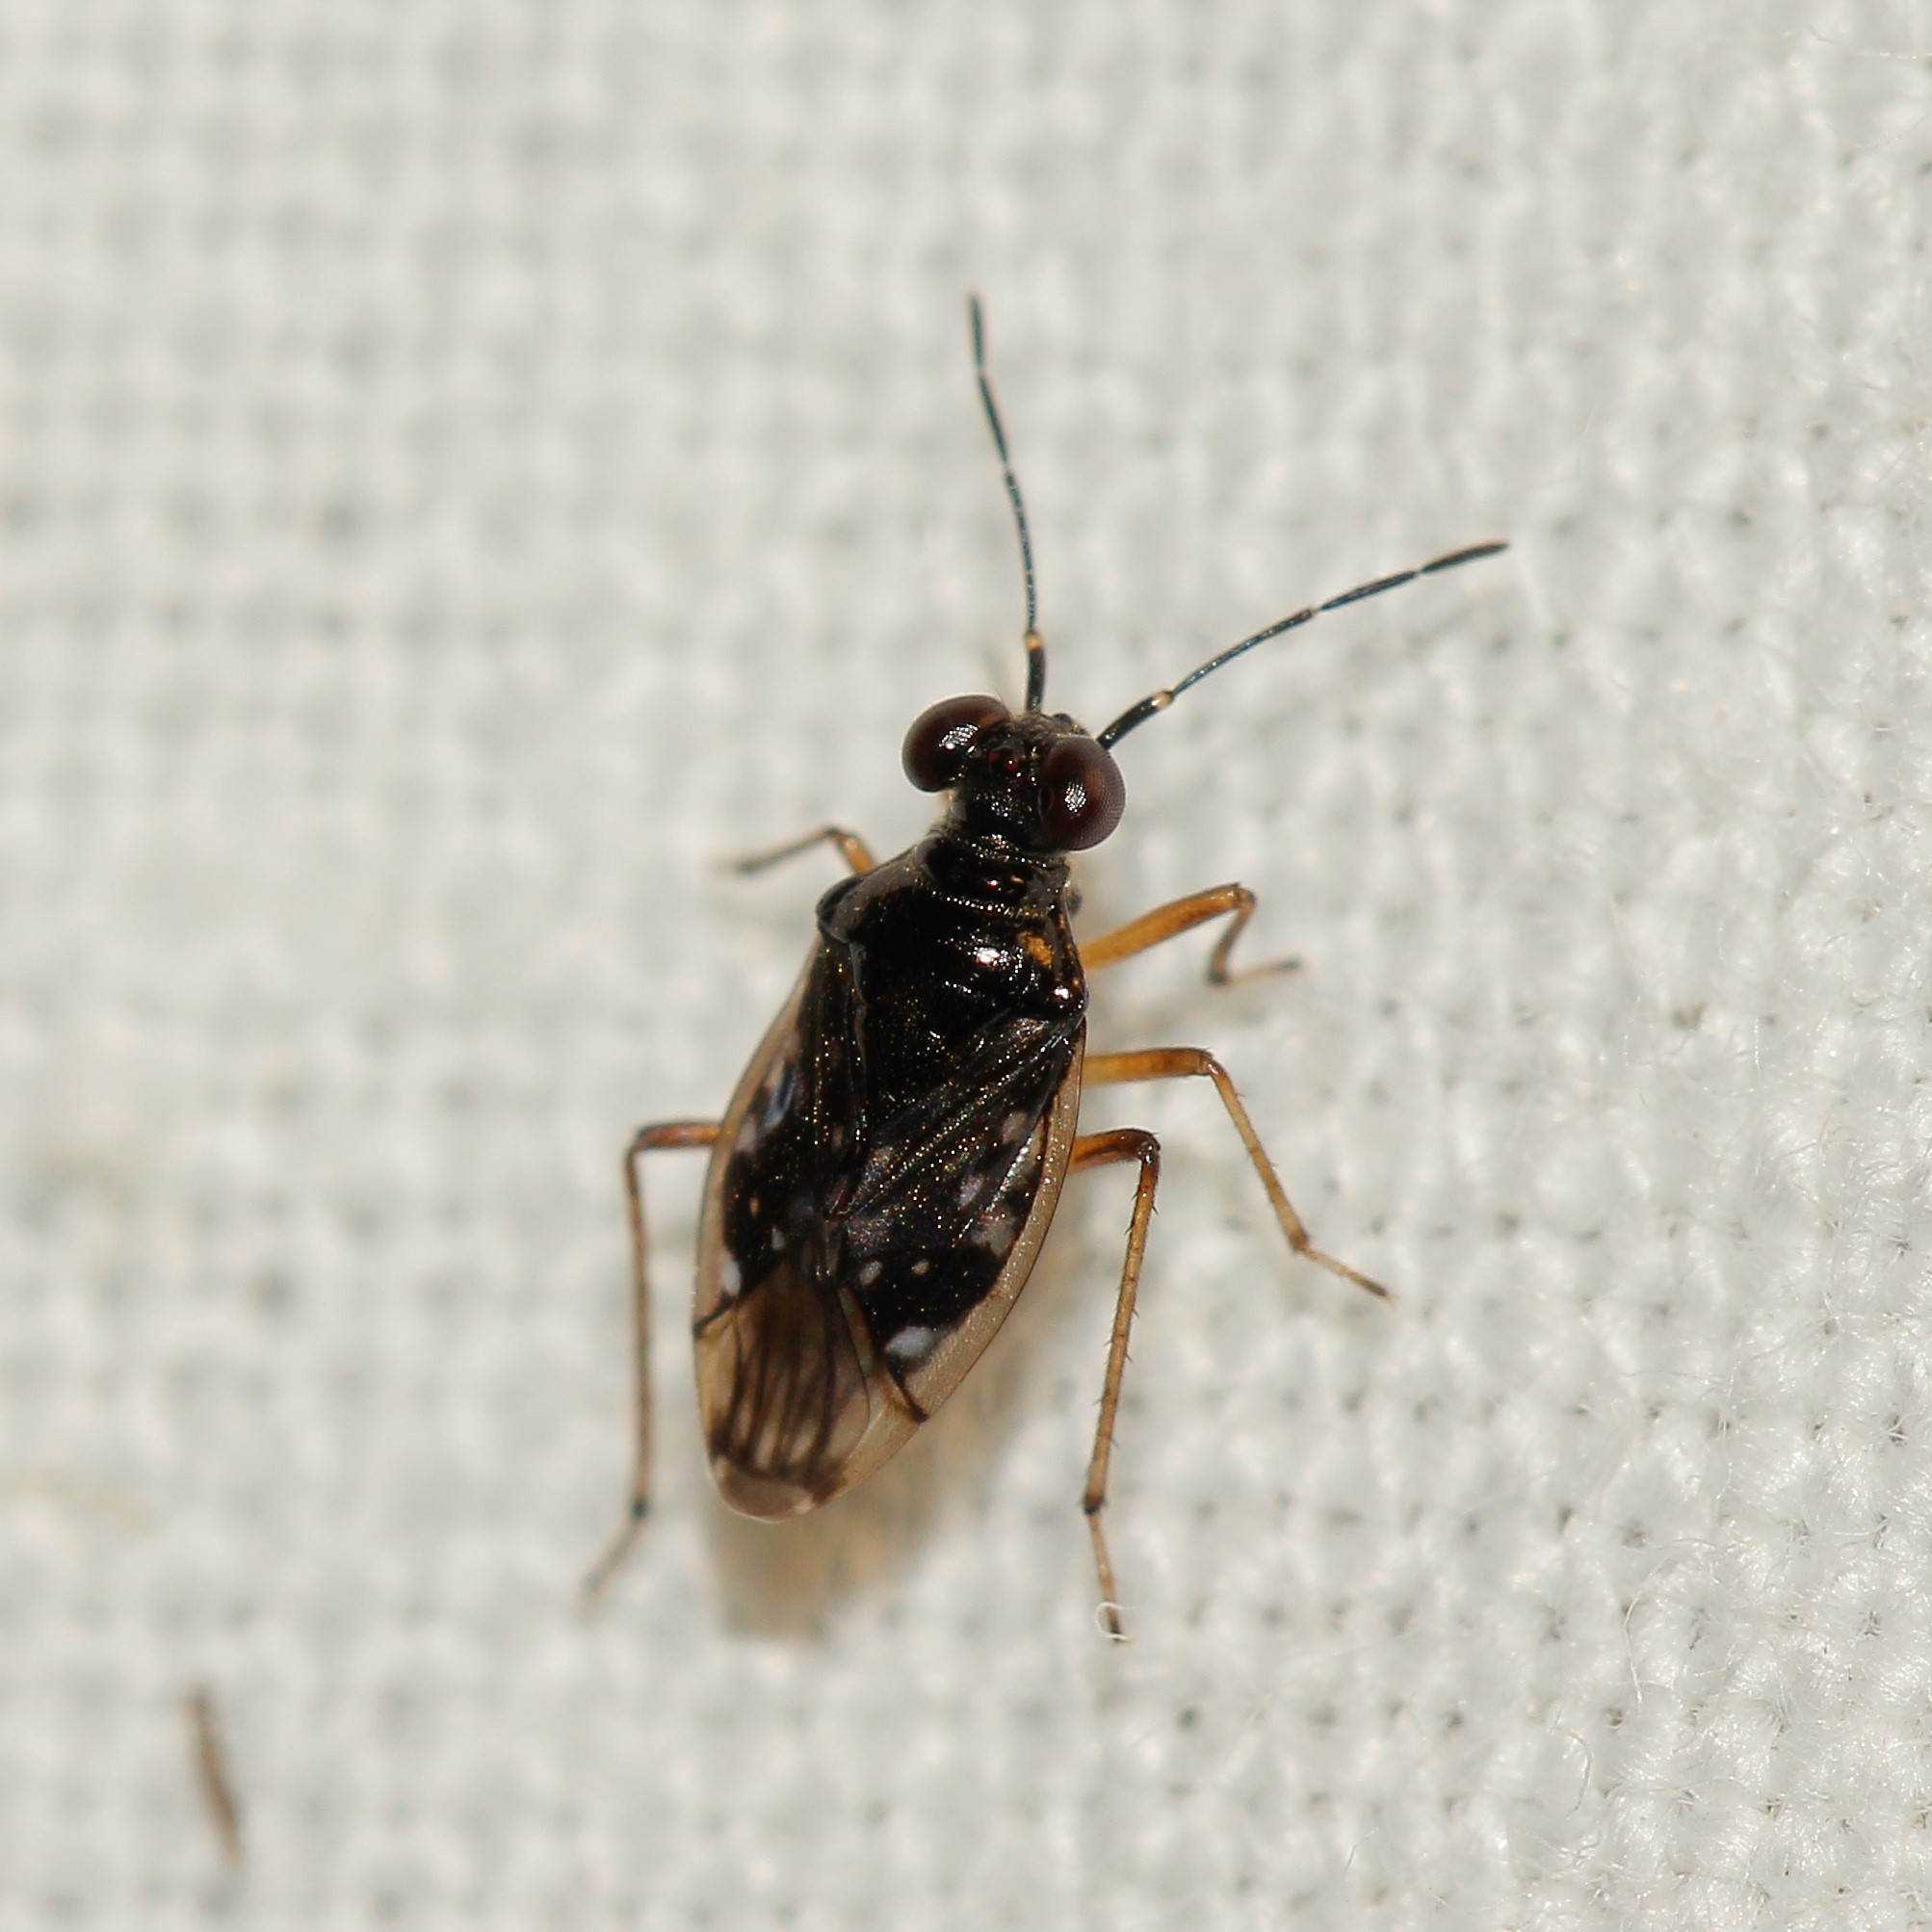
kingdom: Animalia
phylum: Arthropoda
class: Insecta
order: Hemiptera
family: Saldidae
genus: Chartoscirta
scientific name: Chartoscirta elegantula
